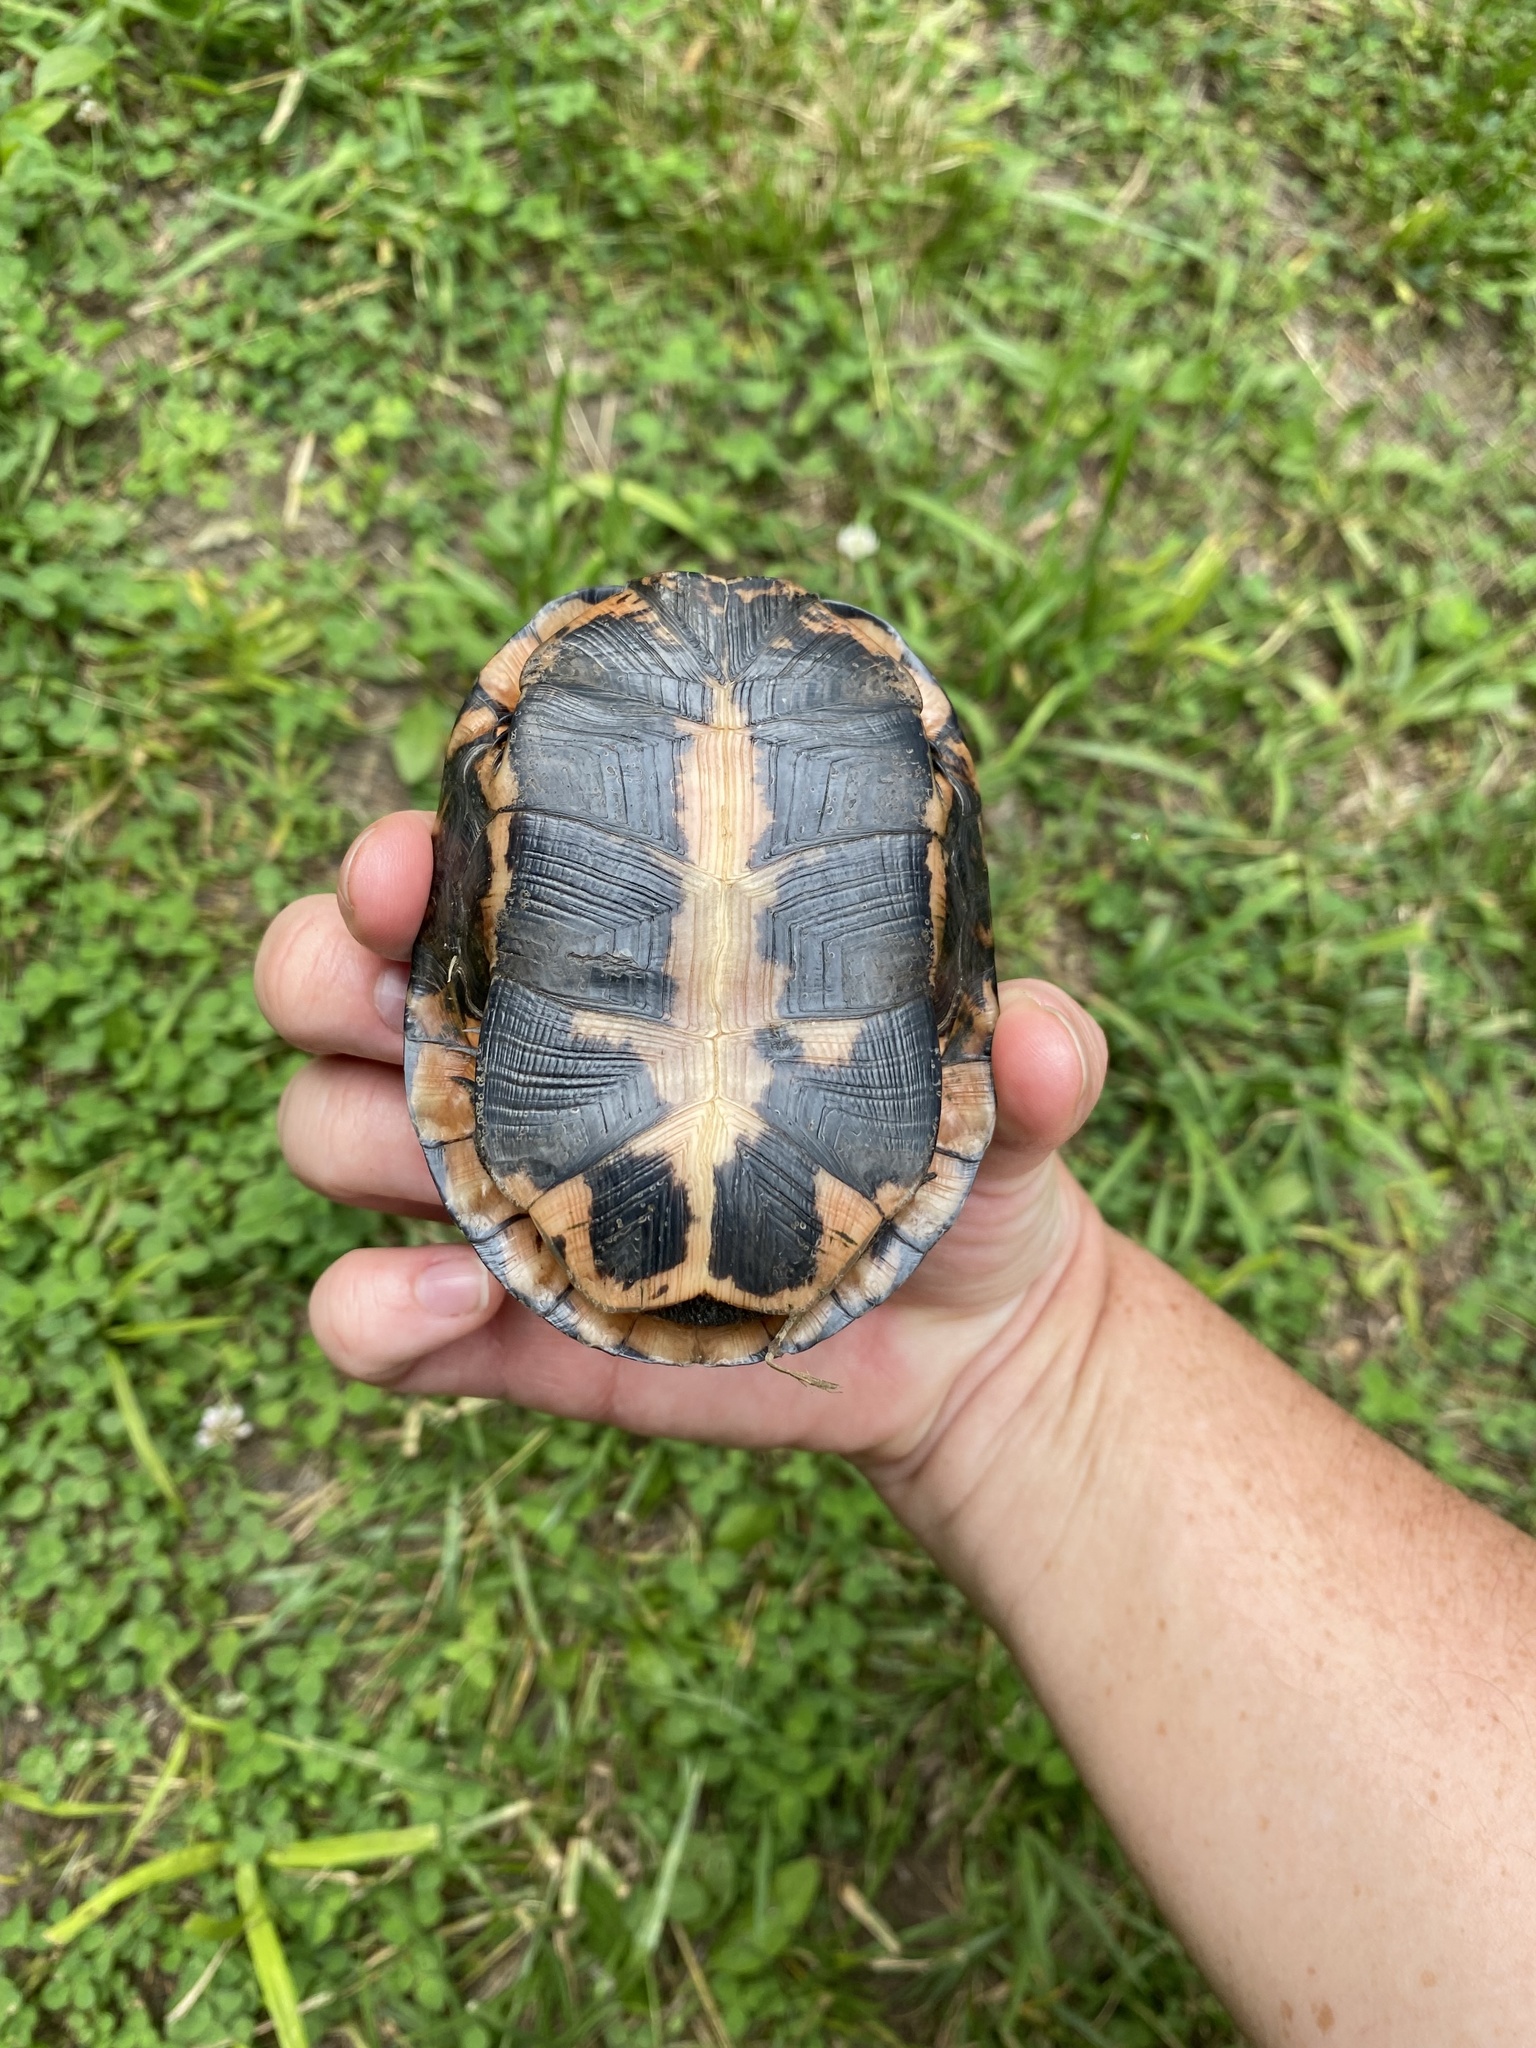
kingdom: Animalia
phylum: Chordata
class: Testudines
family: Emydidae
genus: Clemmys
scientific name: Clemmys guttata
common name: Spotted turtle
